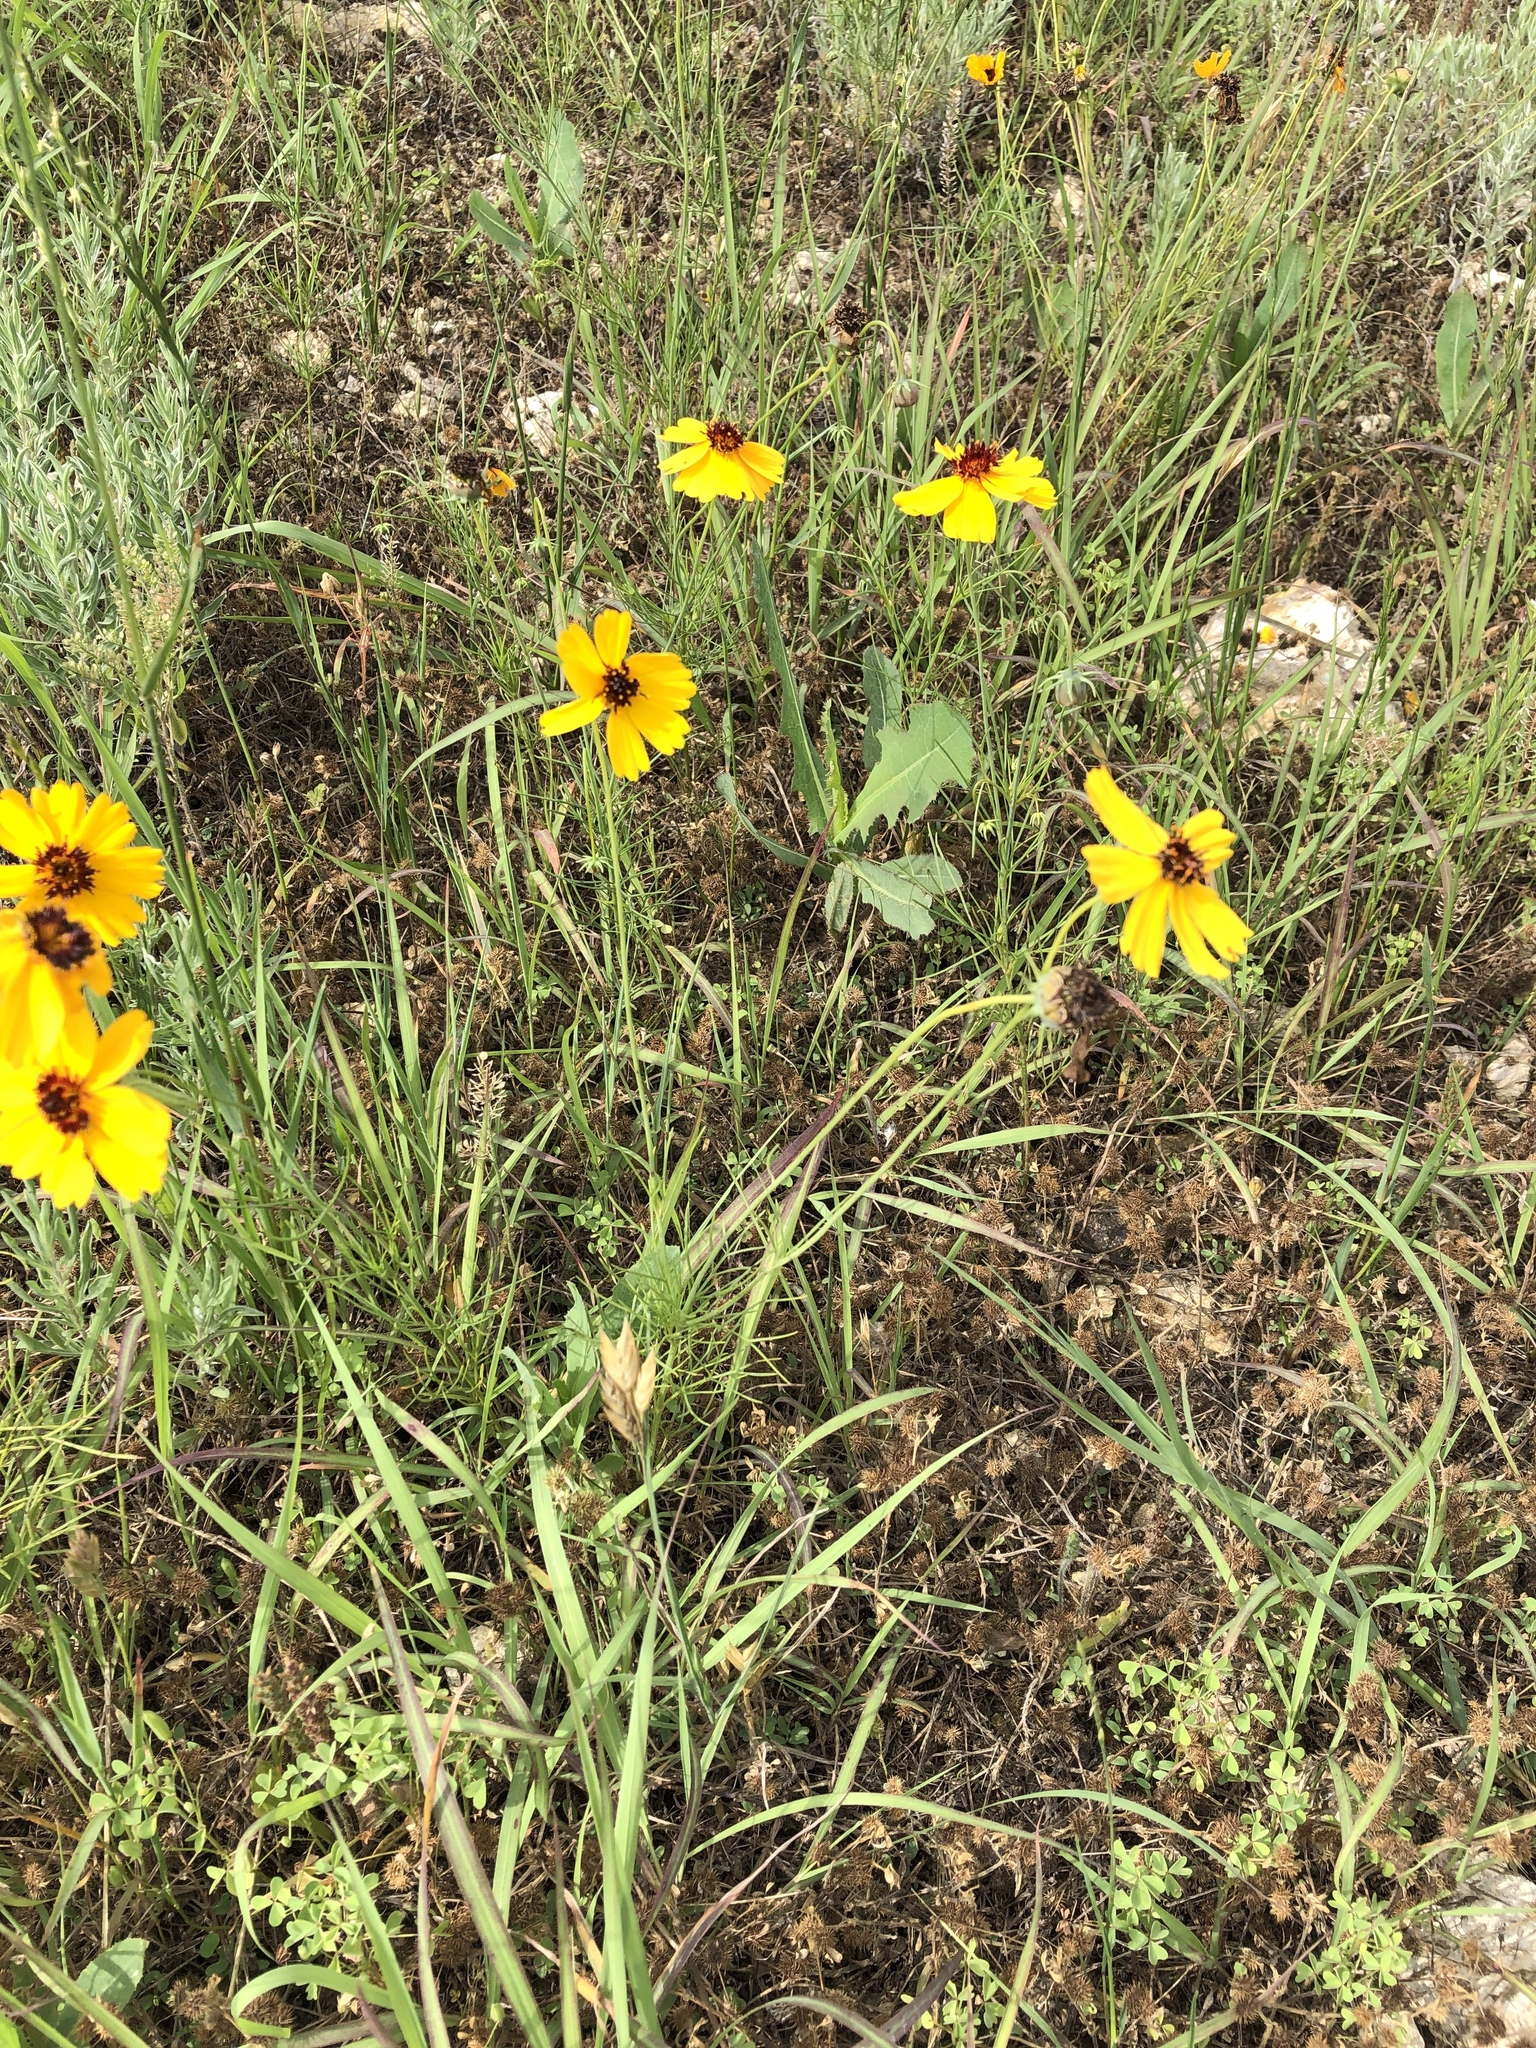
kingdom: Plantae
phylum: Tracheophyta
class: Magnoliopsida
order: Asterales
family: Asteraceae
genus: Thelesperma
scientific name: Thelesperma filifolium
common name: Stiff greenthread
